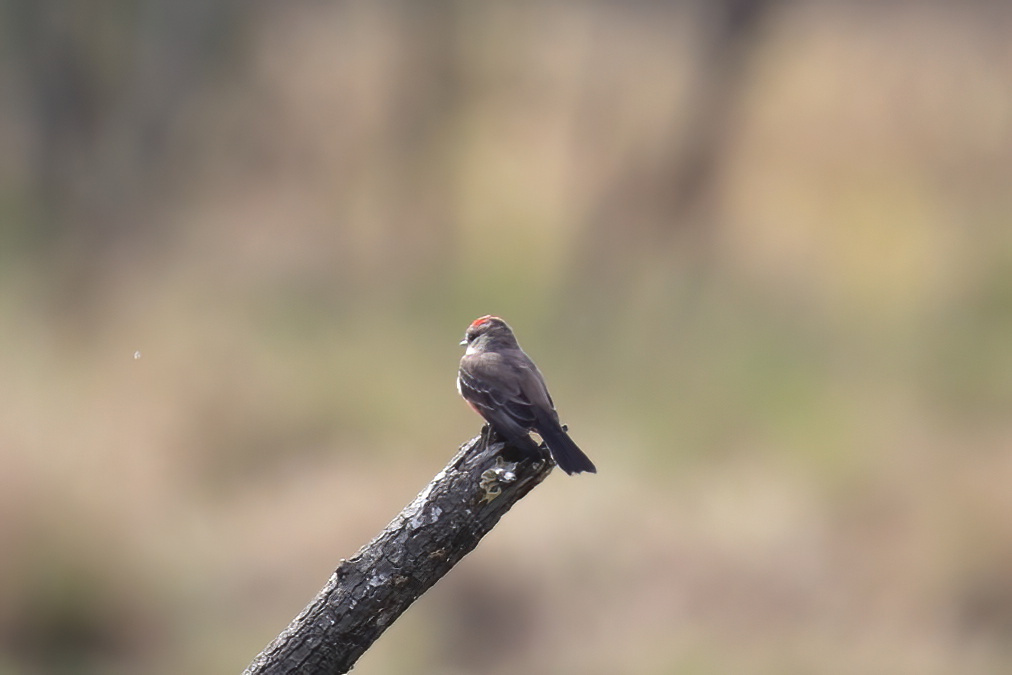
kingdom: Animalia
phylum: Chordata
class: Aves
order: Passeriformes
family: Tyrannidae
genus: Pyrocephalus
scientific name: Pyrocephalus rubinus
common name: Vermilion flycatcher
